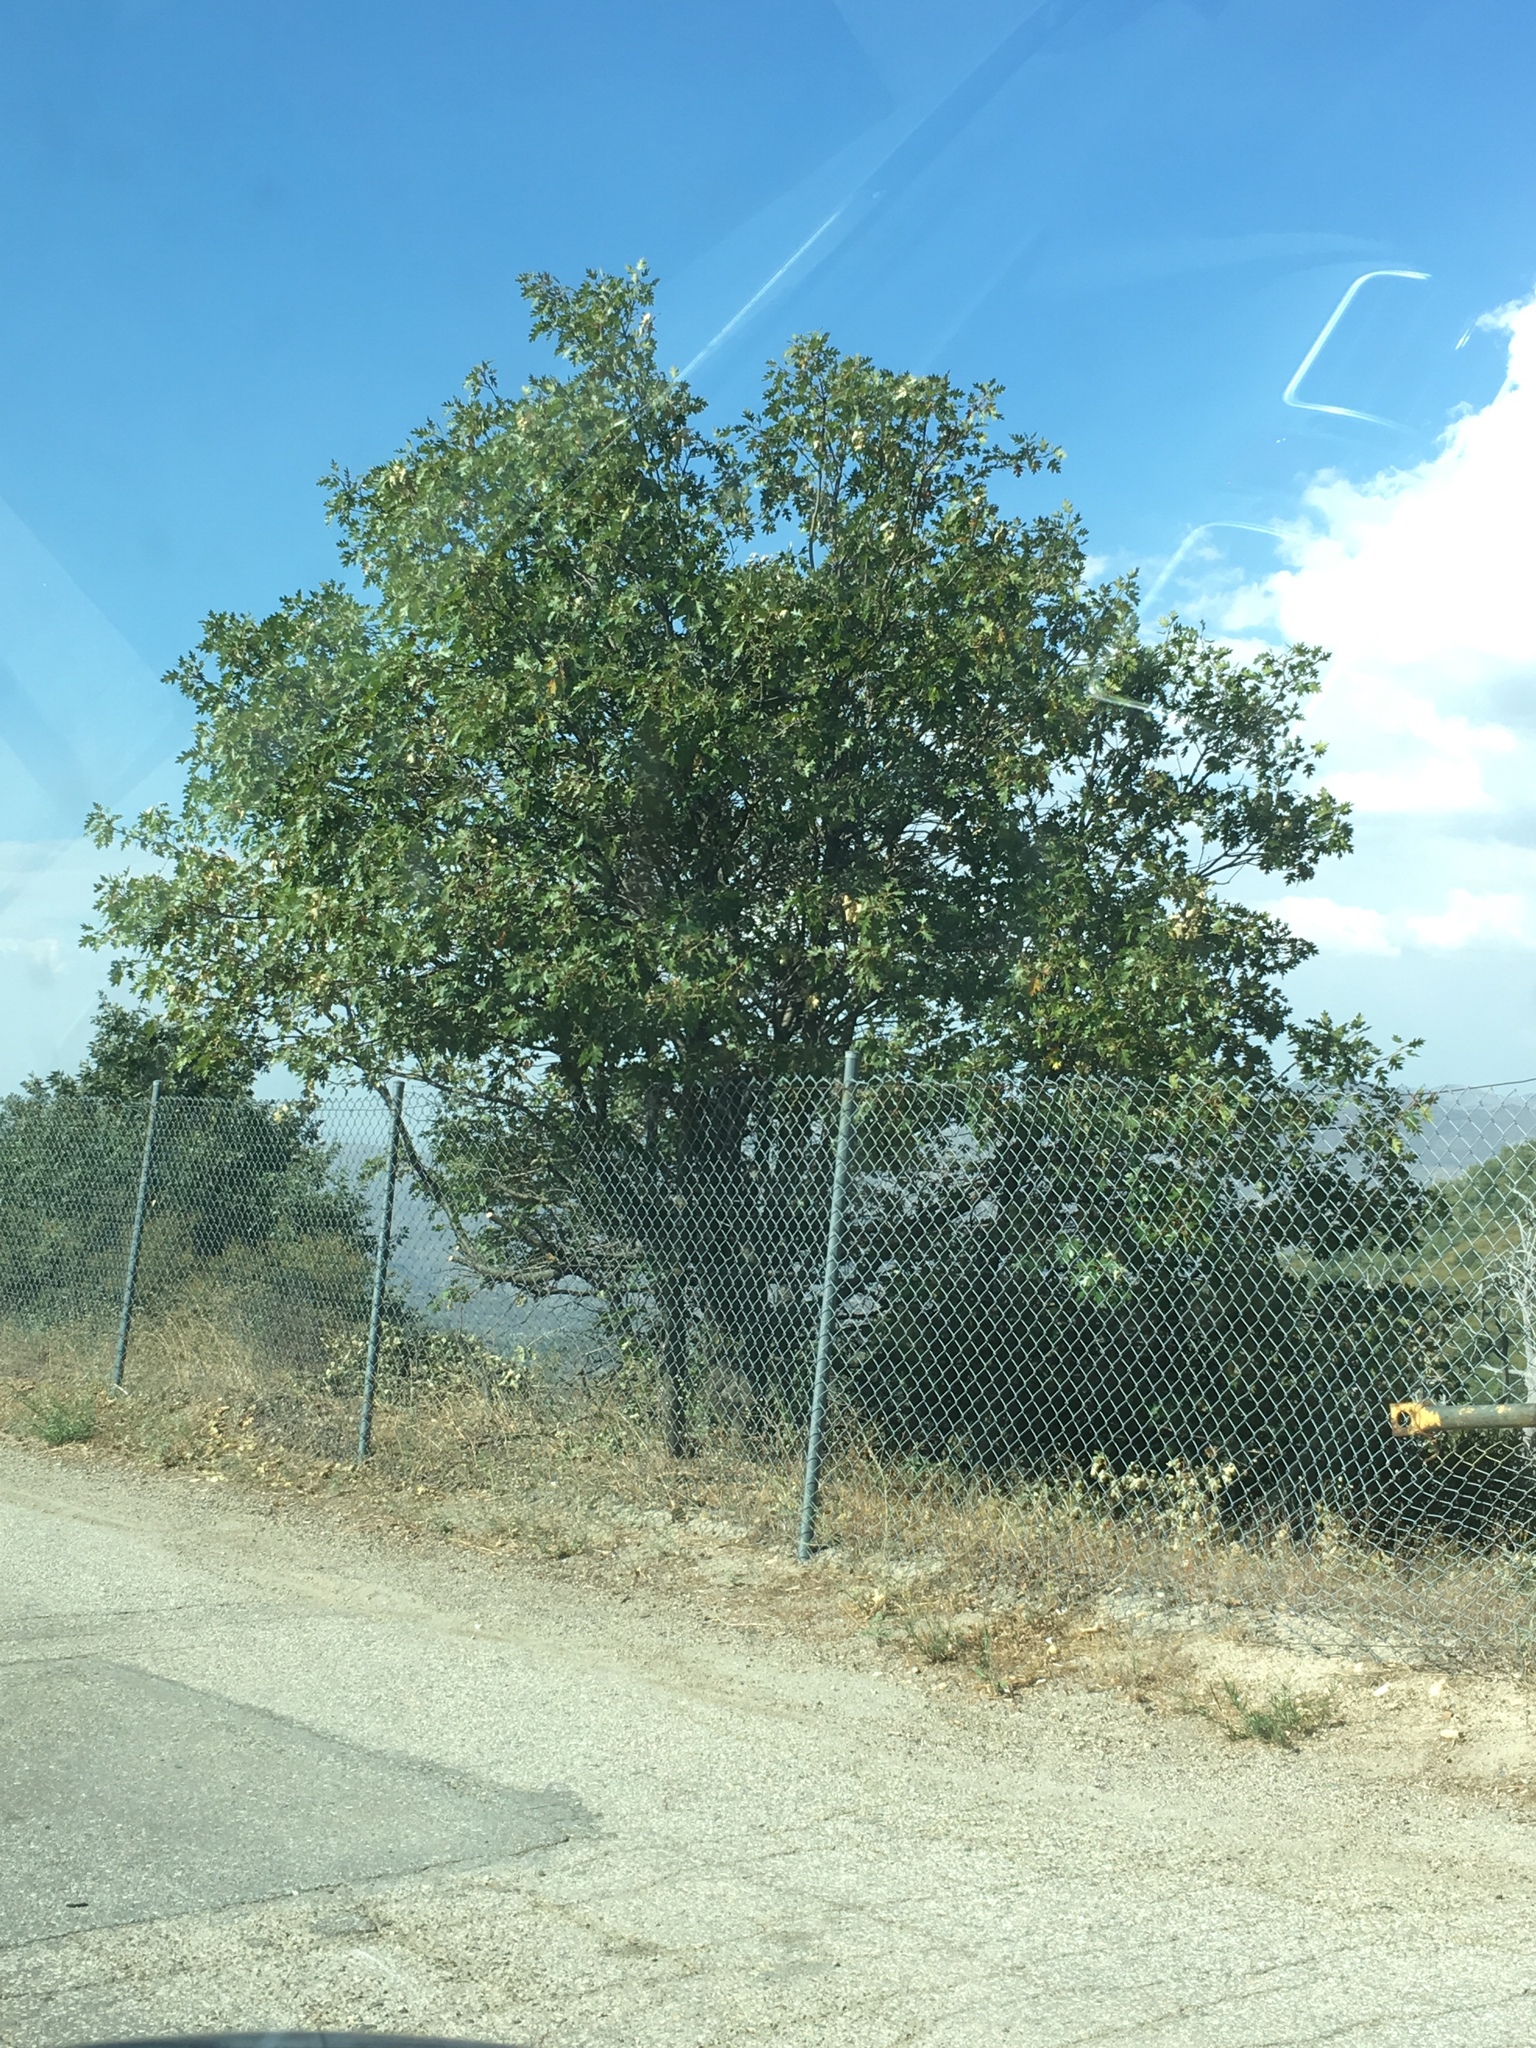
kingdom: Plantae
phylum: Tracheophyta
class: Magnoliopsida
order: Fagales
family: Fagaceae
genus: Quercus
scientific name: Quercus kelloggii
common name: California black oak
